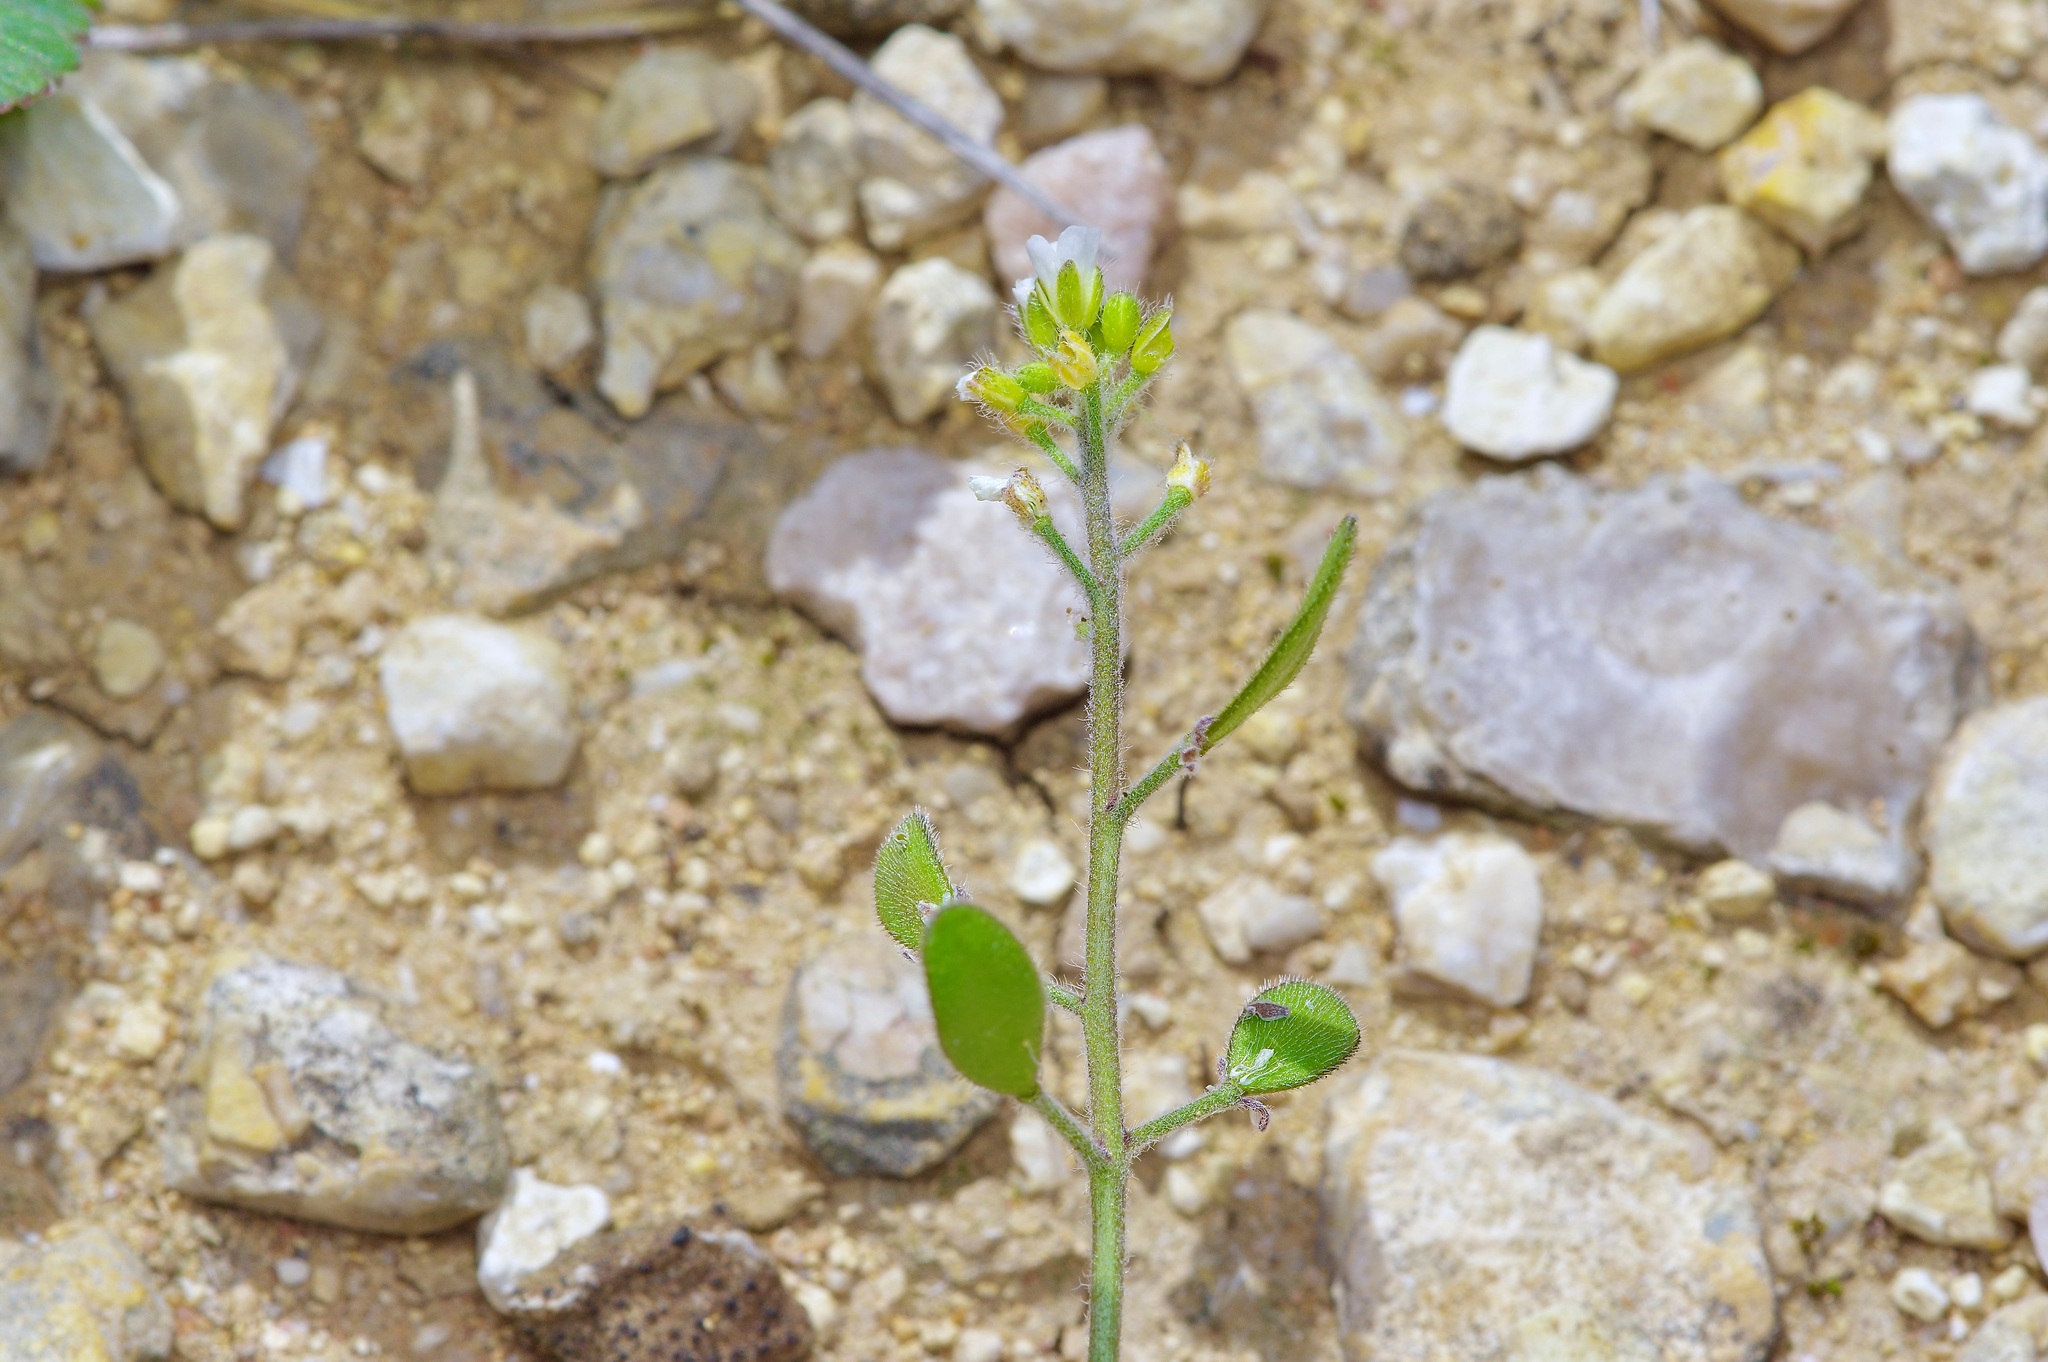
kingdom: Plantae
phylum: Tracheophyta
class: Magnoliopsida
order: Brassicales
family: Brassicaceae
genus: Tomostima
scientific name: Tomostima platycarpa
